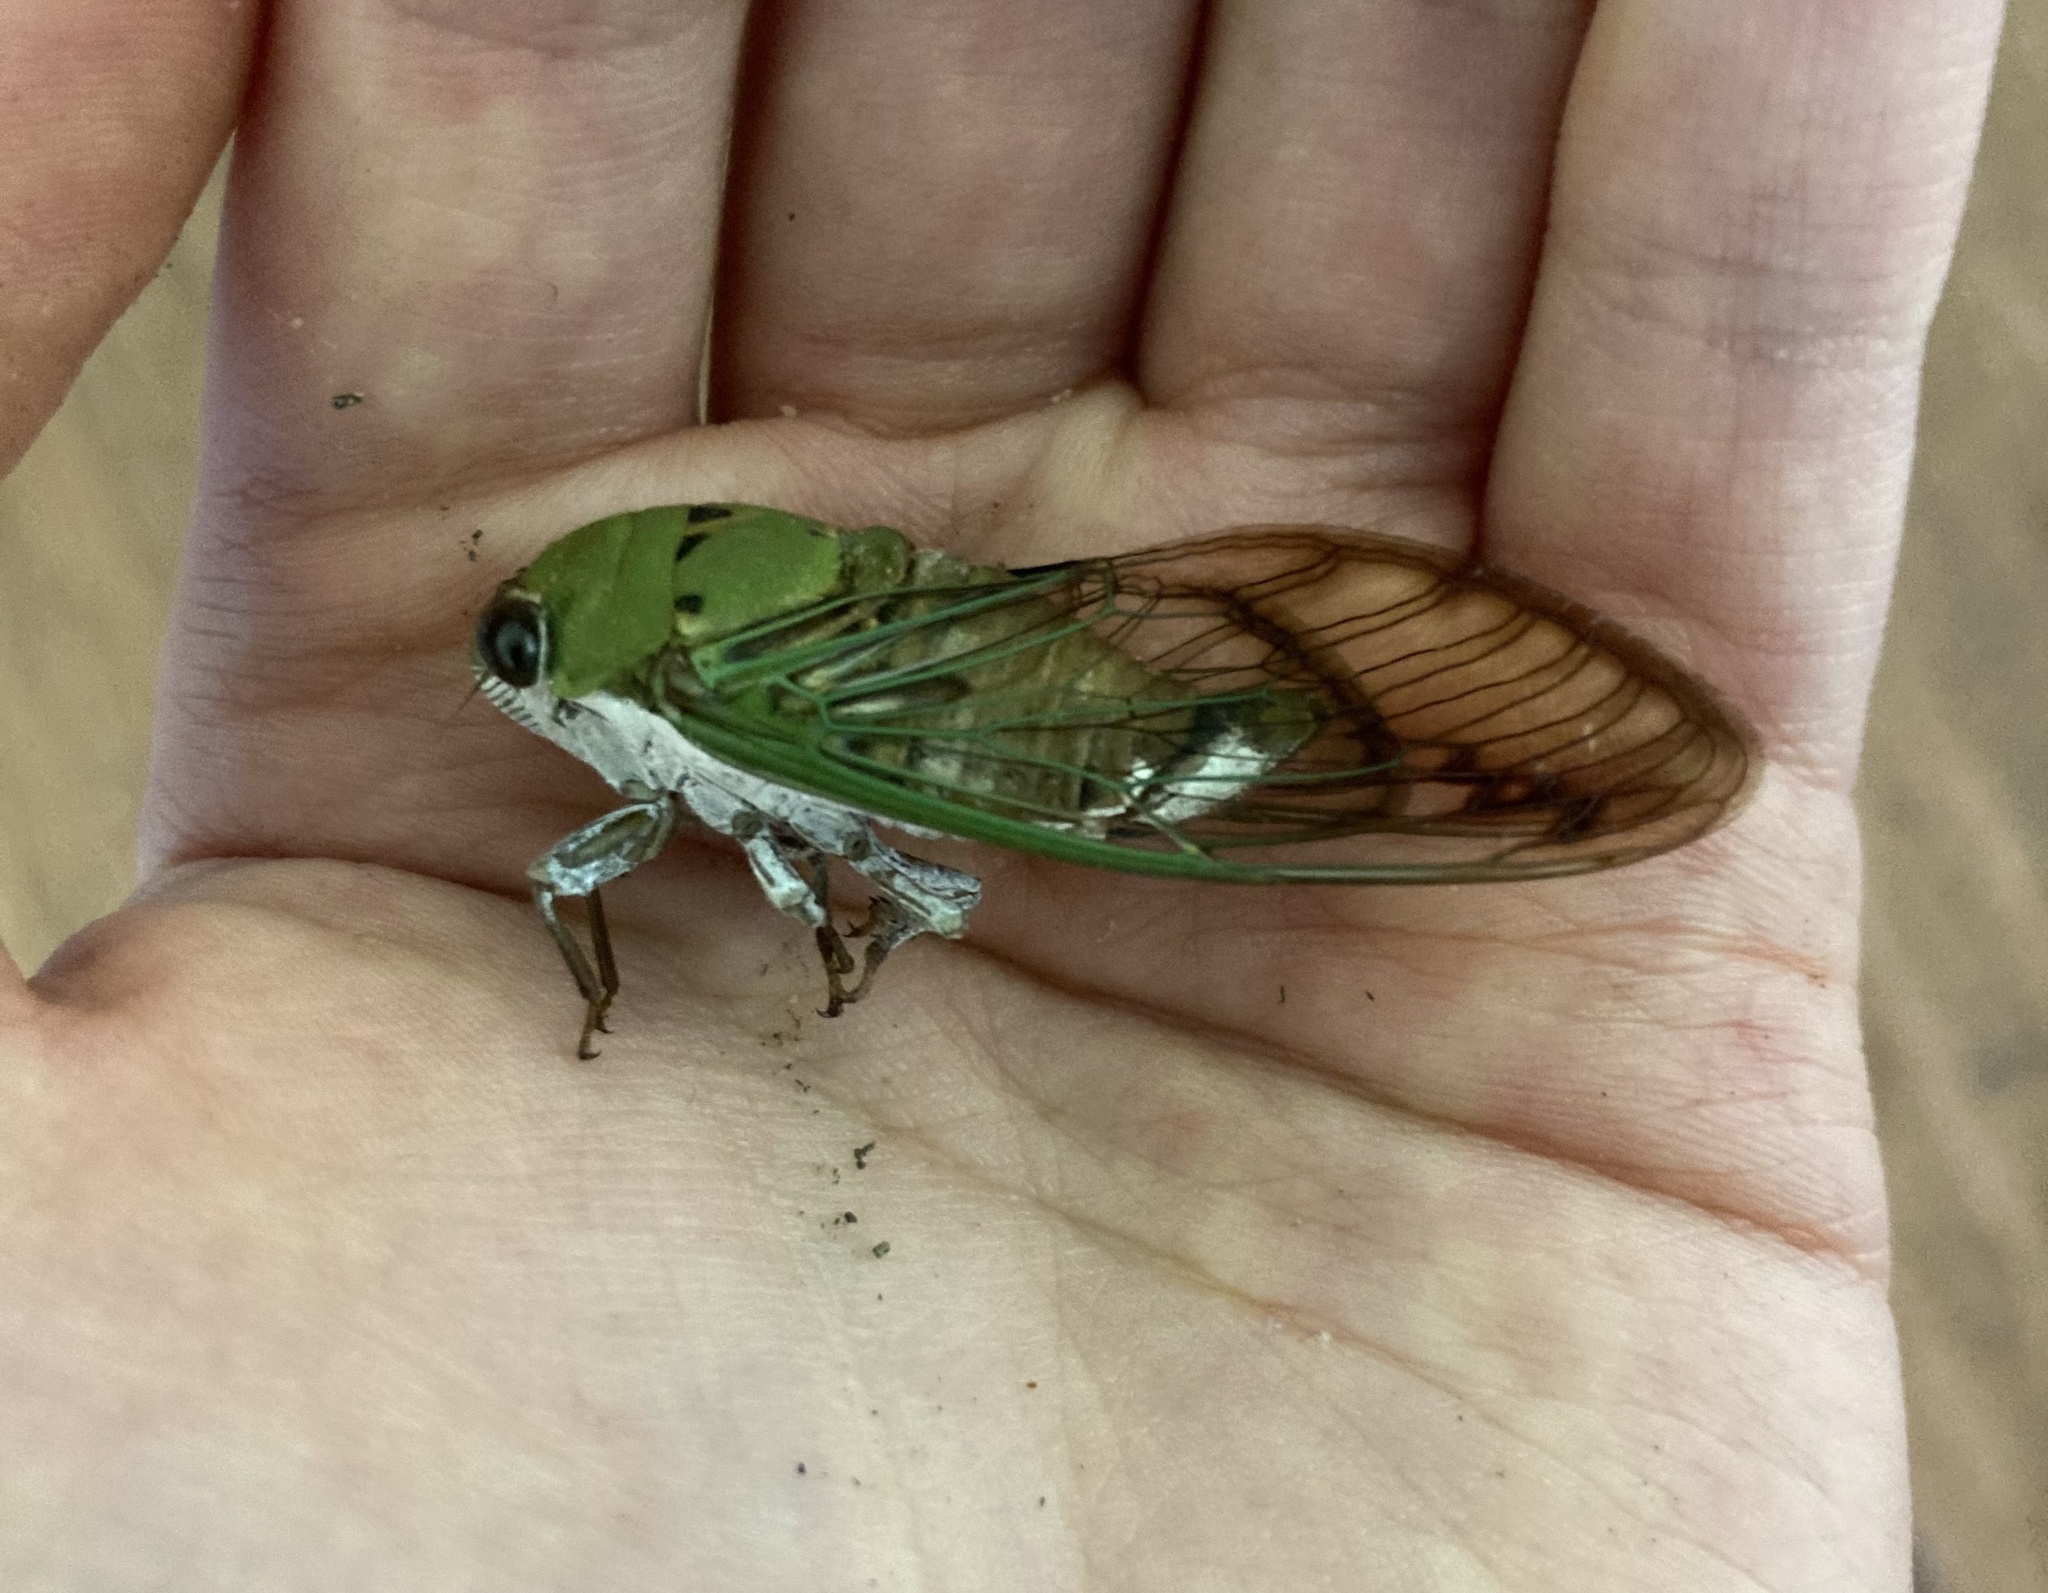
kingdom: Animalia
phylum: Arthropoda
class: Insecta
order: Hemiptera
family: Cicadidae
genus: Neotibicen
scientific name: Neotibicen superbus
